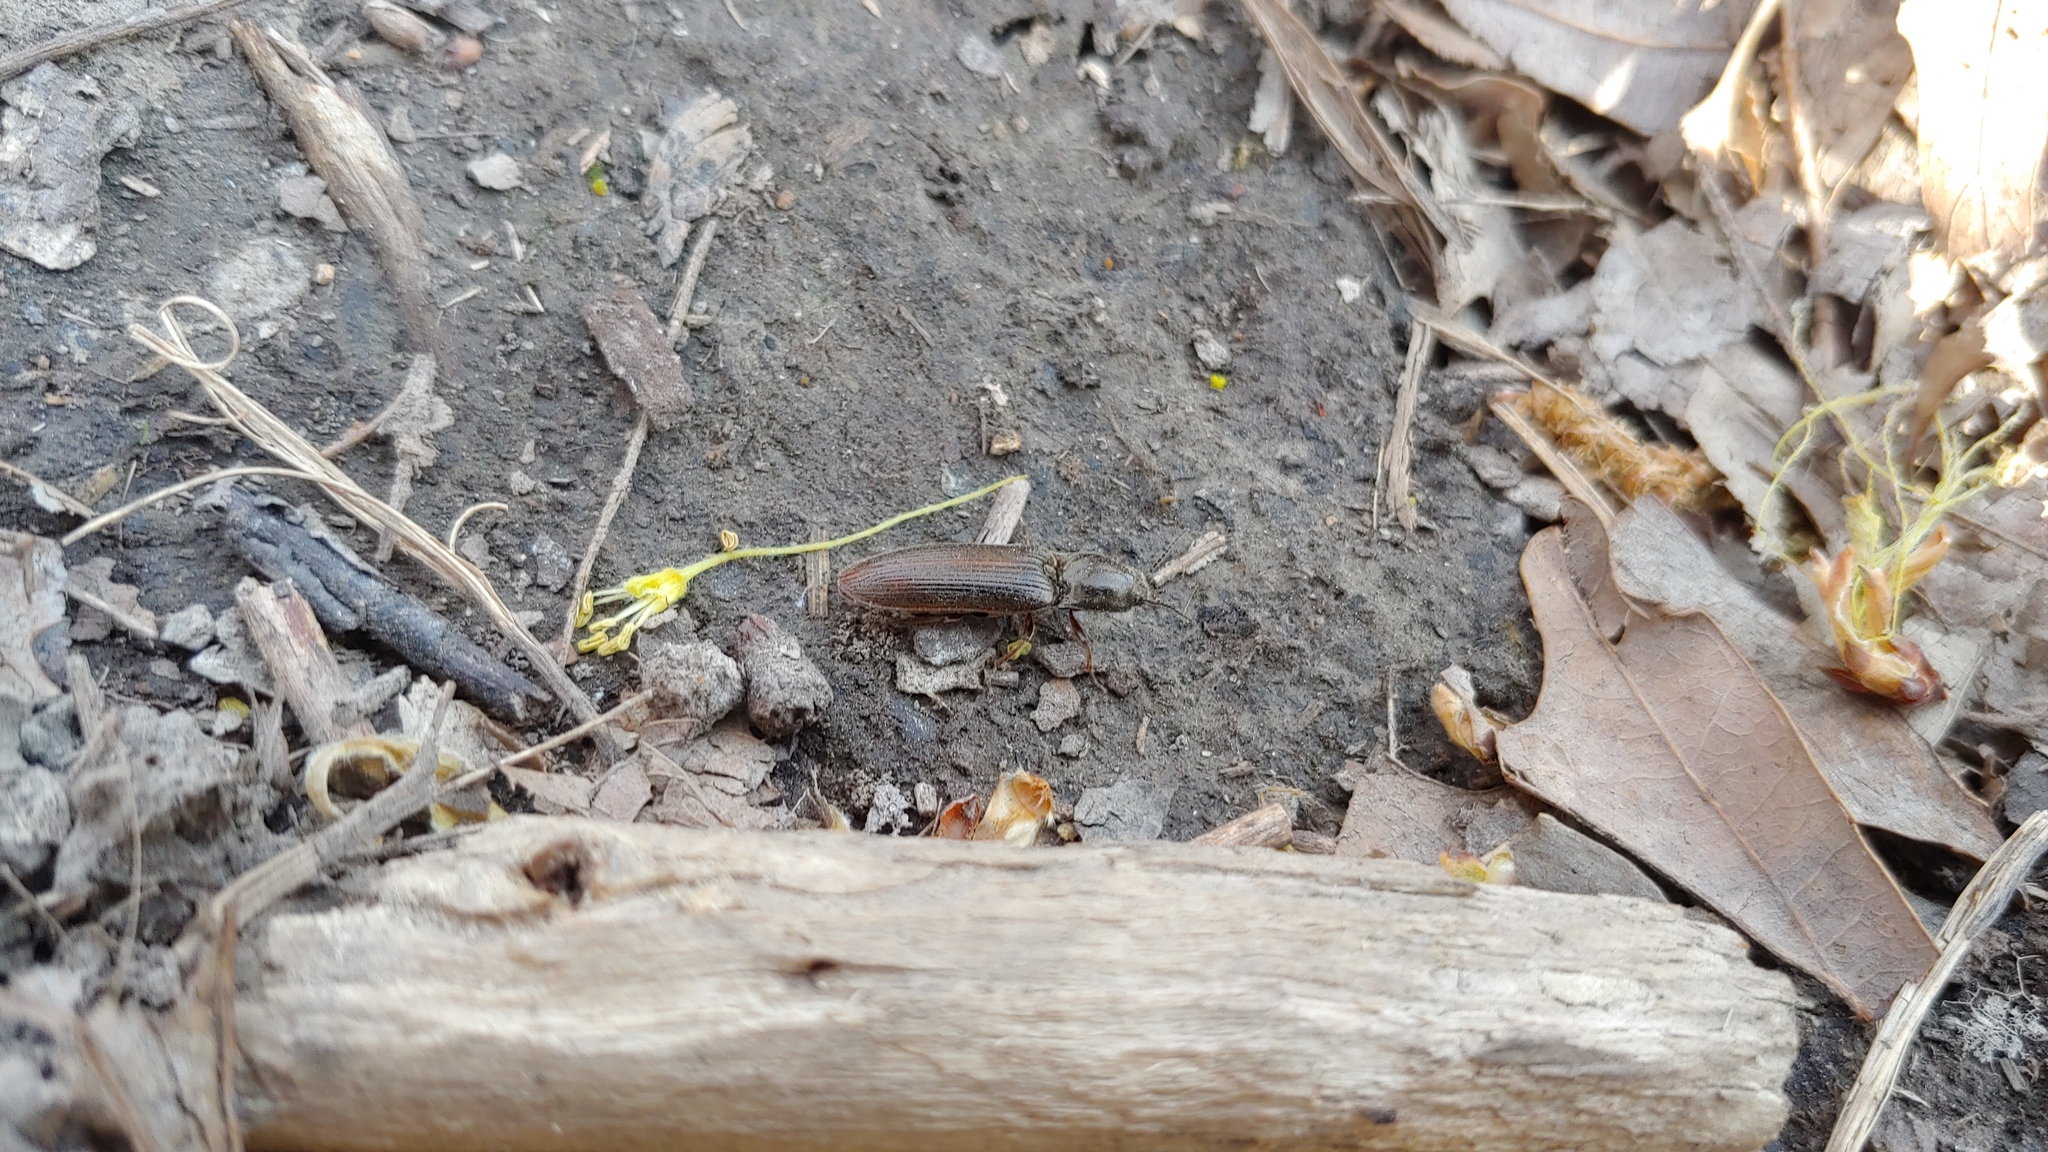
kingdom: Animalia
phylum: Arthropoda
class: Insecta
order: Coleoptera
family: Elateridae
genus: Sylvanelater
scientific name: Sylvanelater cylindriformis
